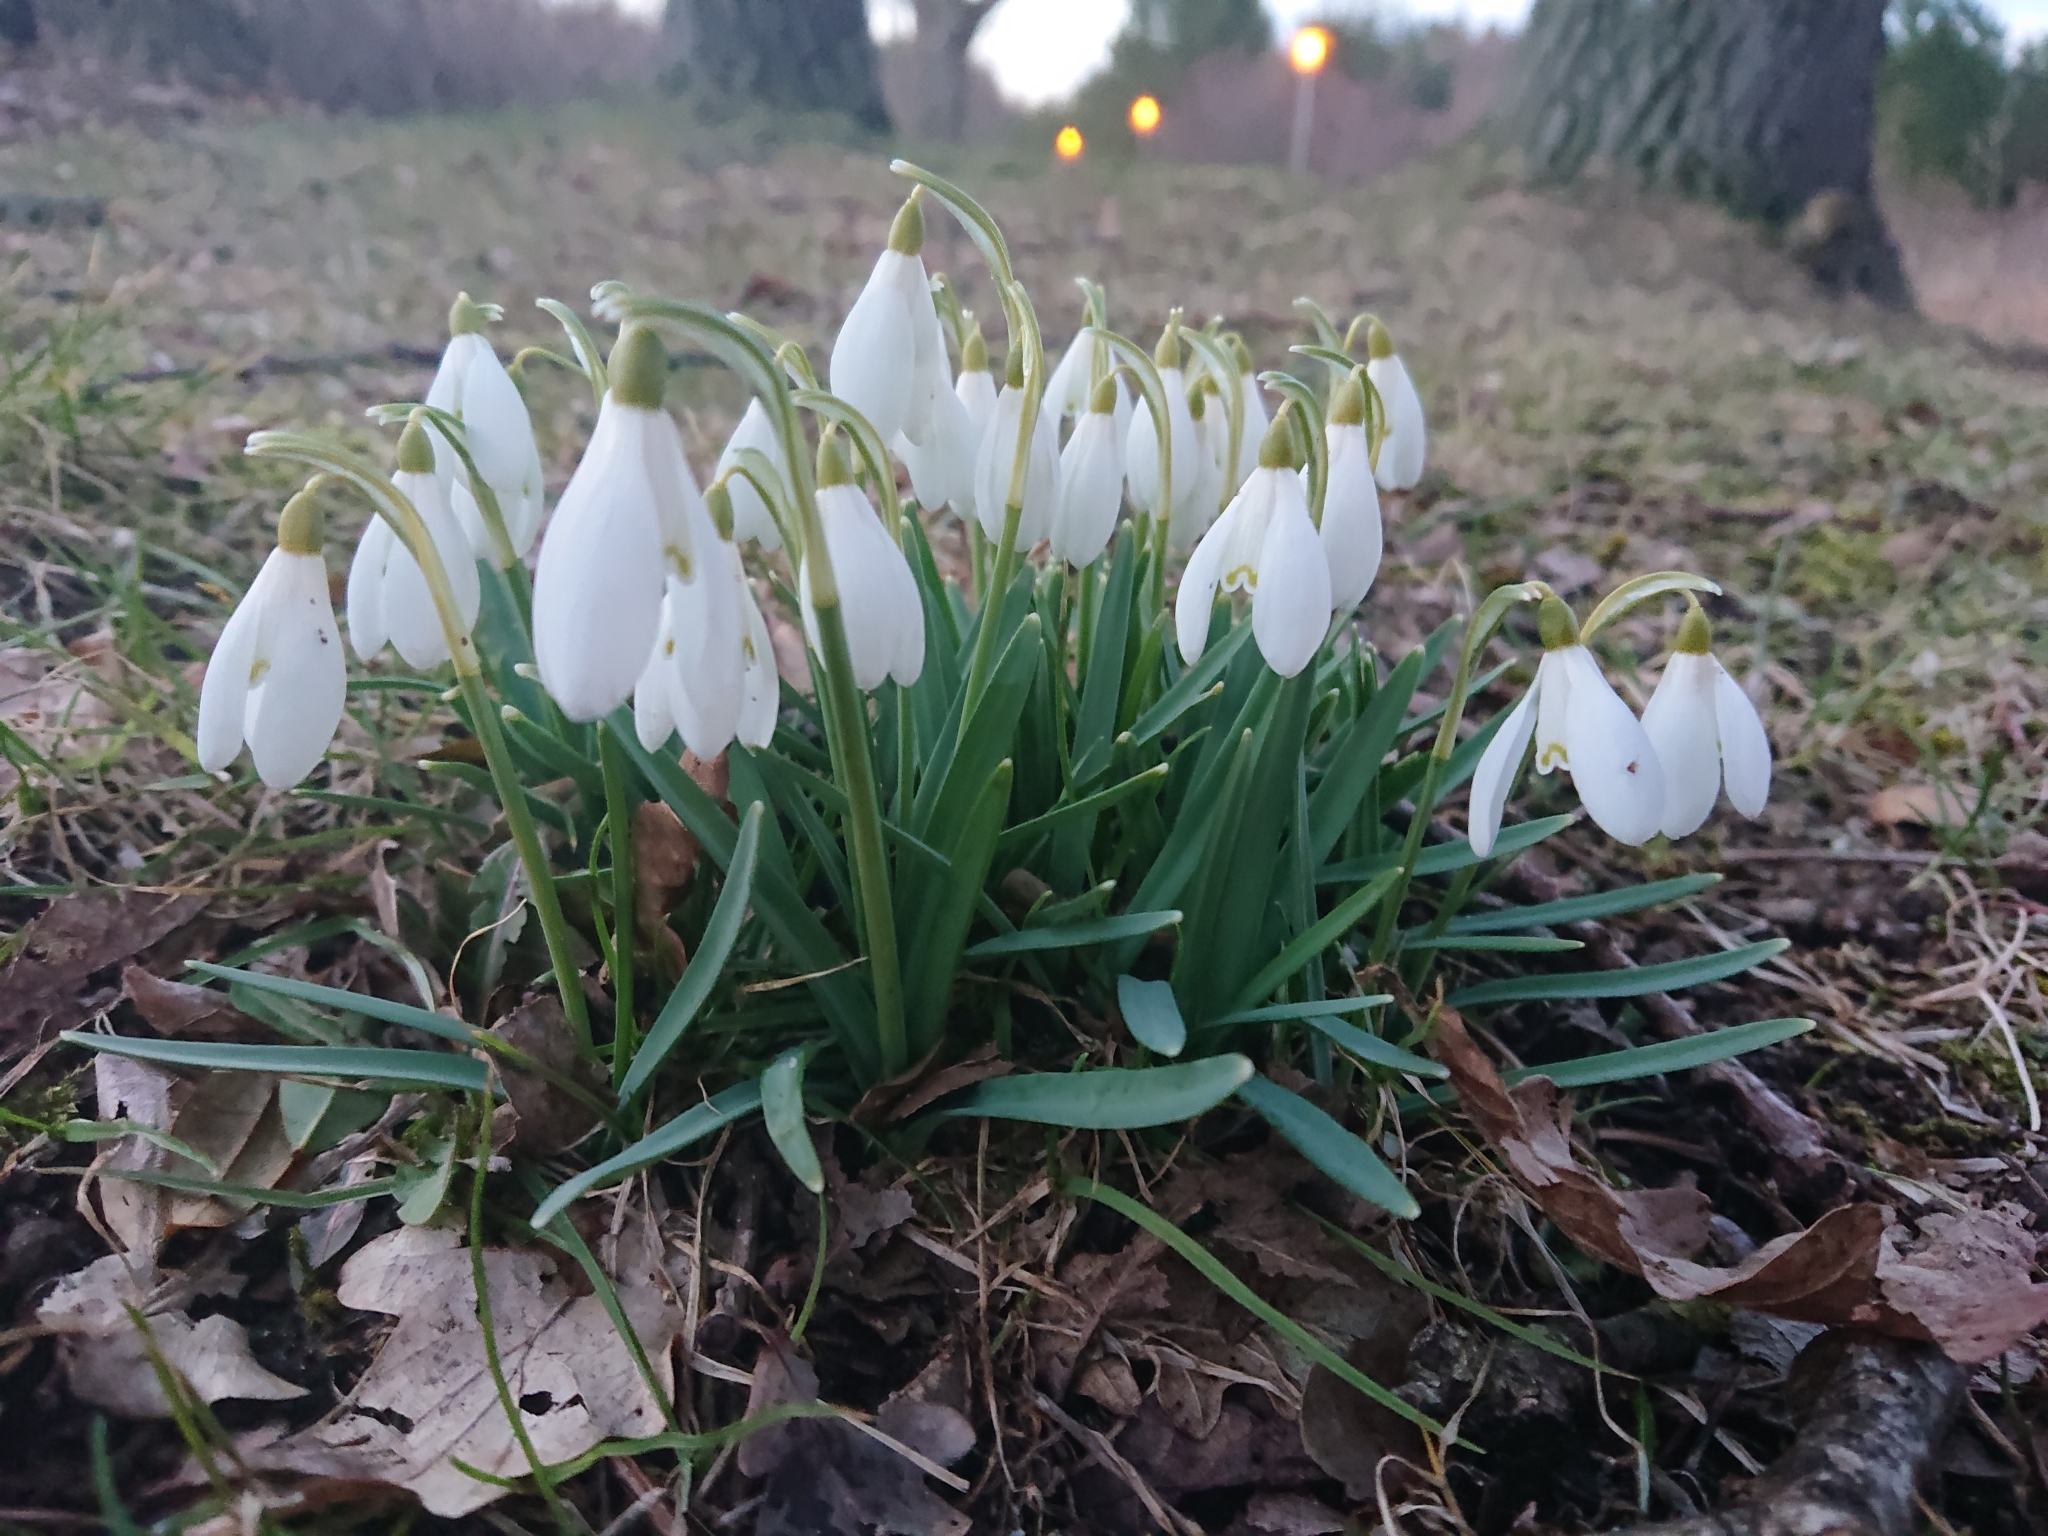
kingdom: Plantae
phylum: Tracheophyta
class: Liliopsida
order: Asparagales
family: Amaryllidaceae
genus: Galanthus
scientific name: Galanthus nivalis
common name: Snowdrop
